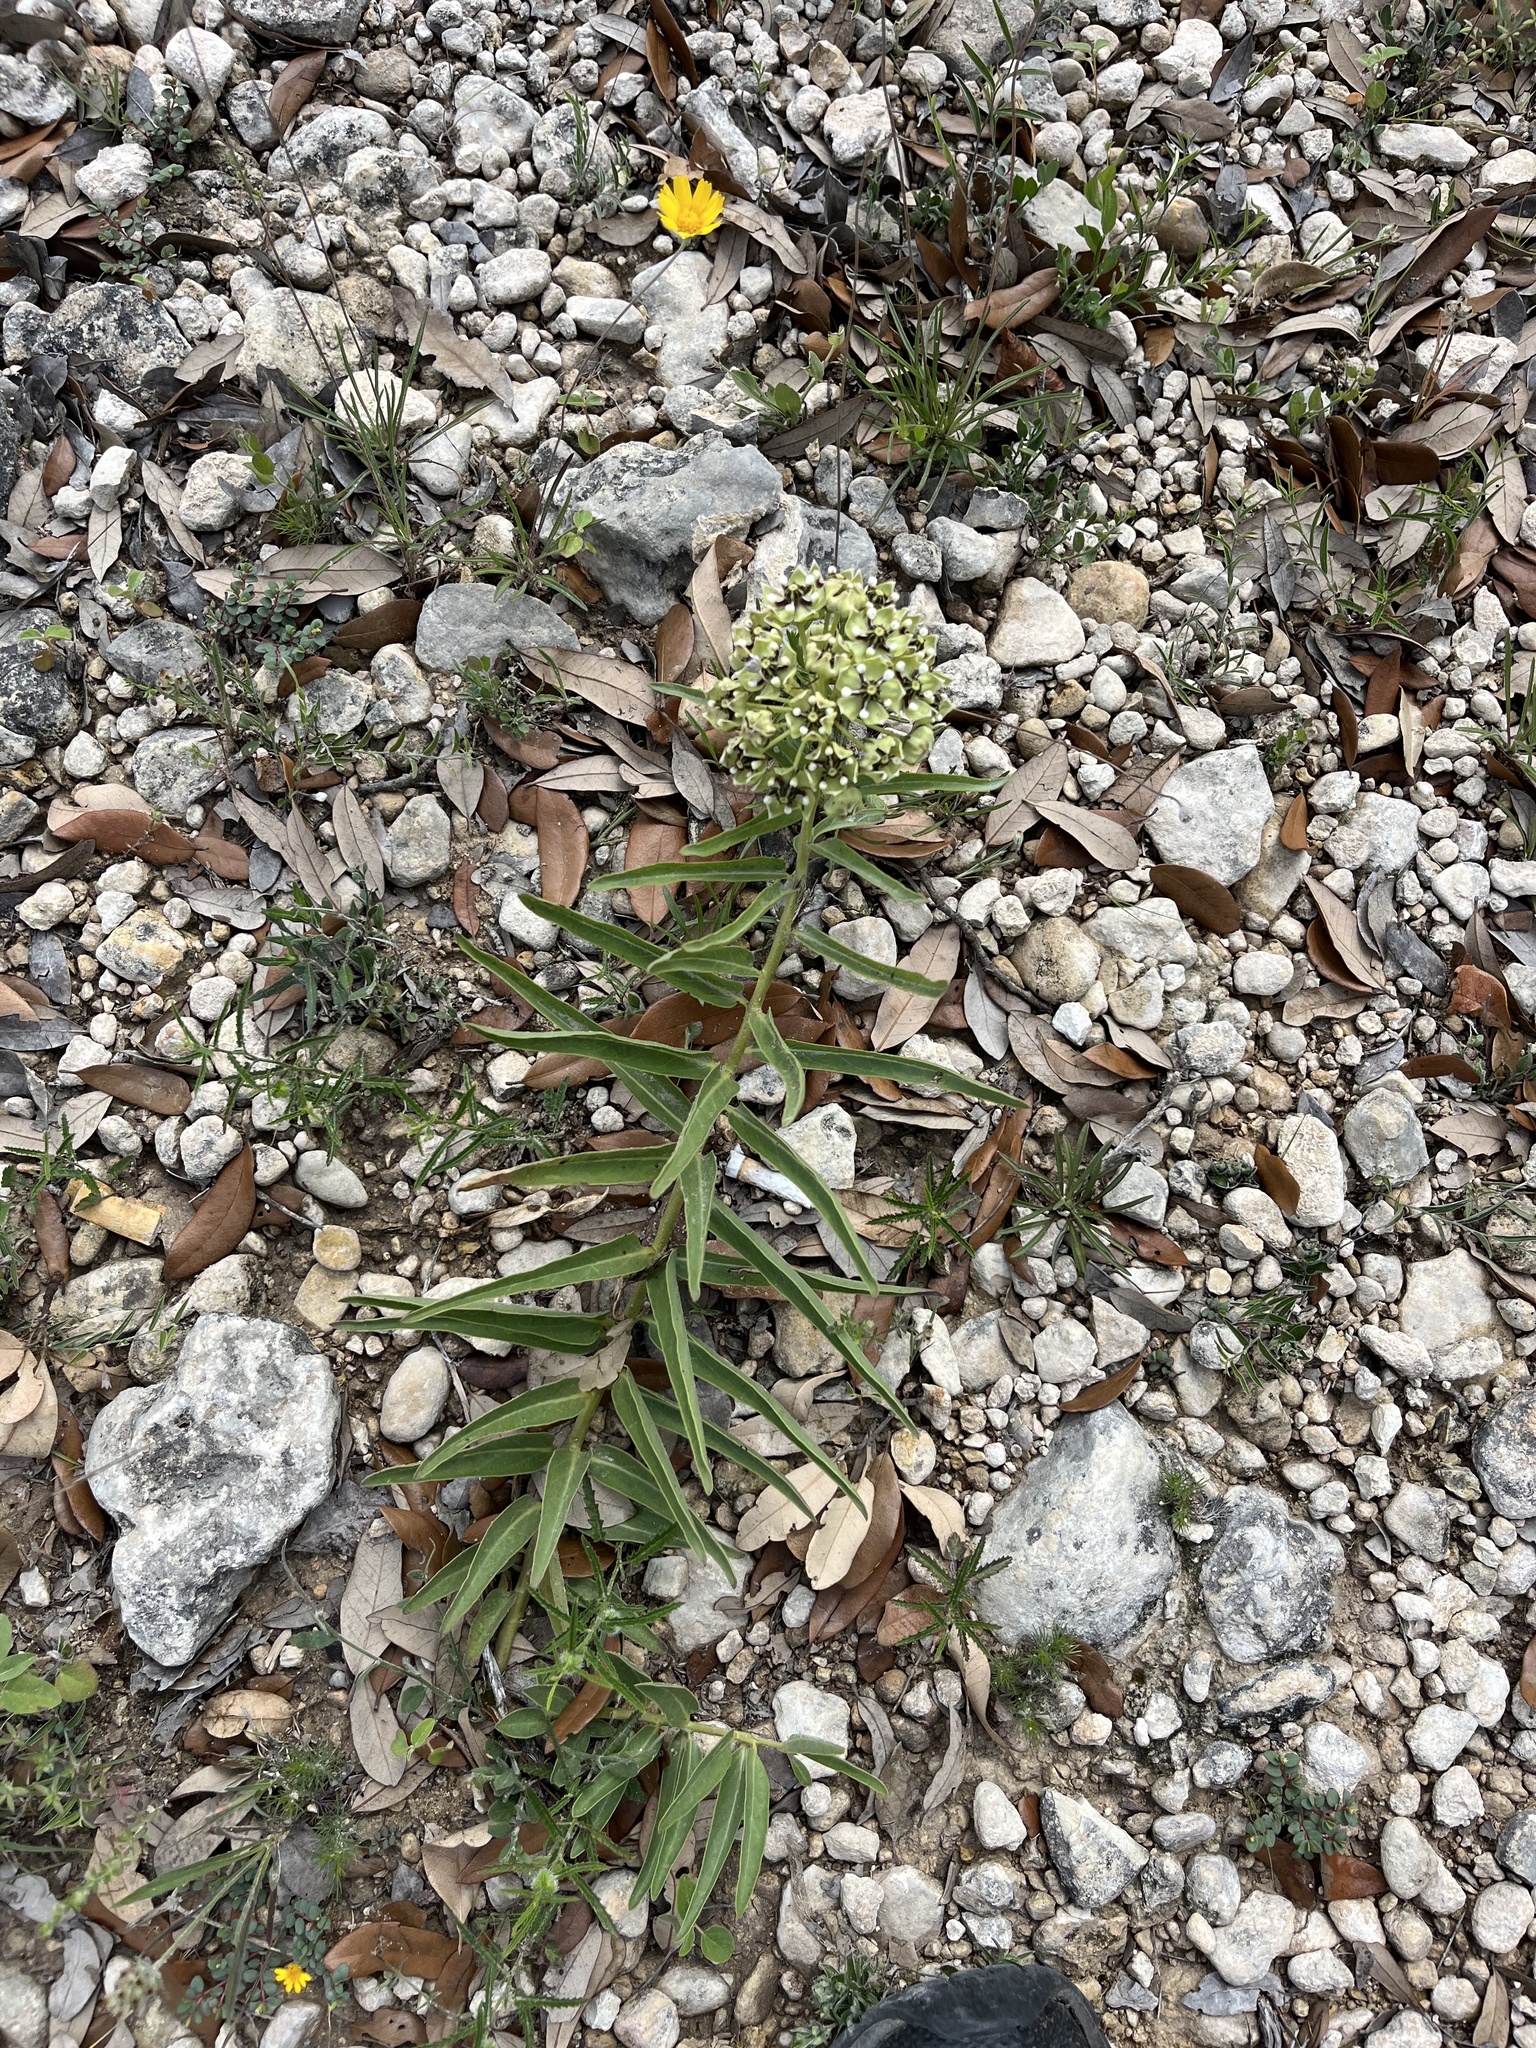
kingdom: Plantae
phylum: Tracheophyta
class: Magnoliopsida
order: Gentianales
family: Apocynaceae
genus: Asclepias
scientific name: Asclepias asperula
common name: Antelope horns
